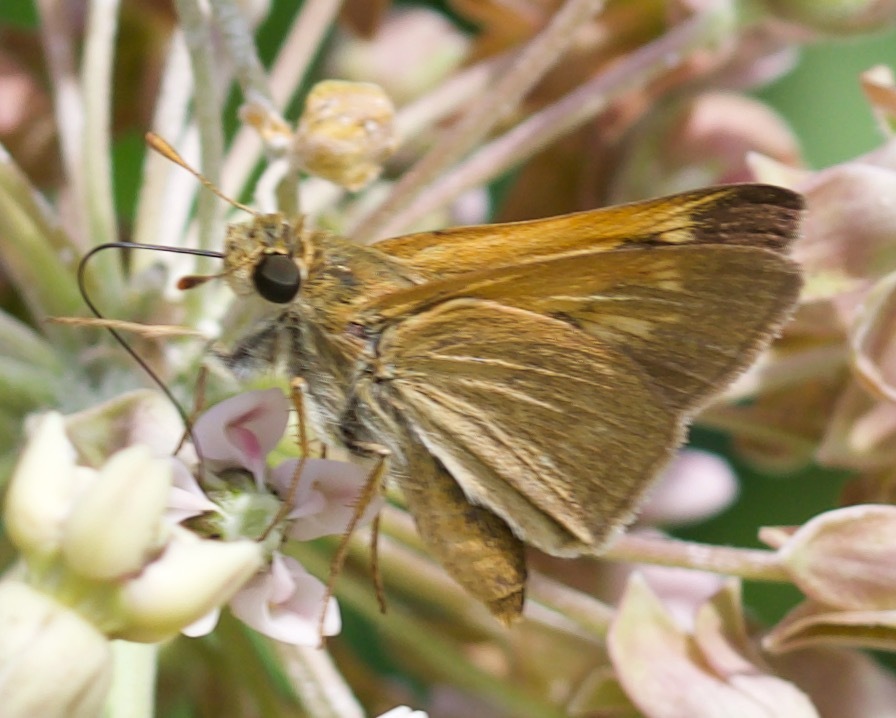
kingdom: Animalia
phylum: Arthropoda
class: Insecta
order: Lepidoptera
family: Hesperiidae
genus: Polites
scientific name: Polites origenes
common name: Crossline skipper
